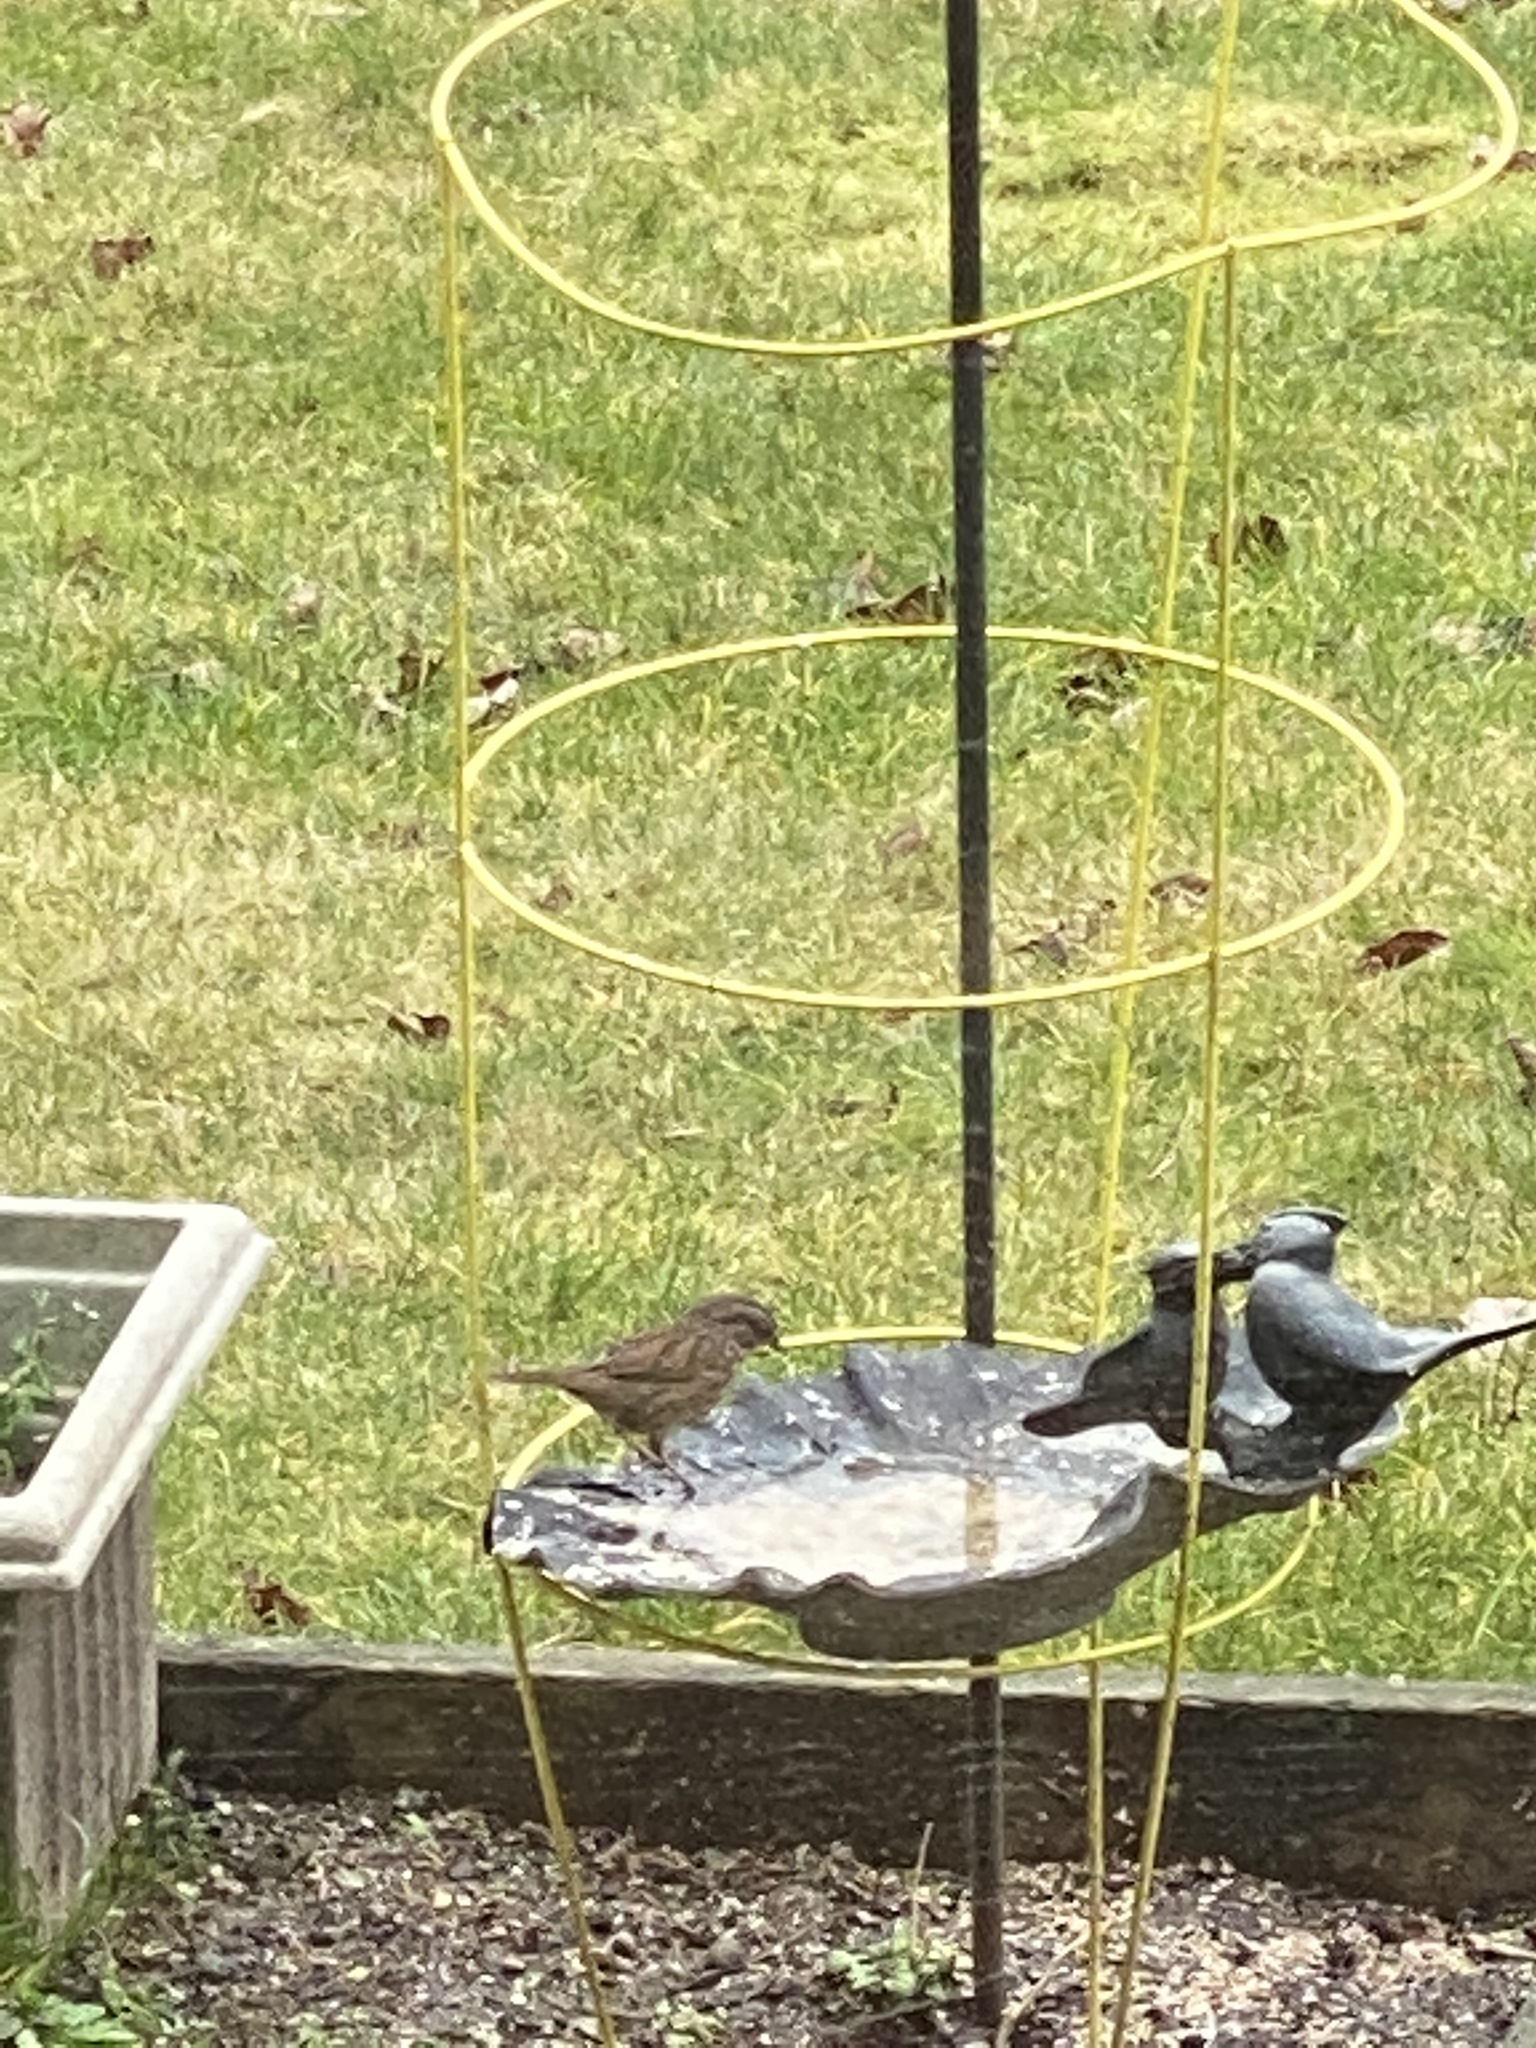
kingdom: Animalia
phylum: Chordata
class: Aves
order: Passeriformes
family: Passerellidae
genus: Melospiza
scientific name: Melospiza melodia
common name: Song sparrow
